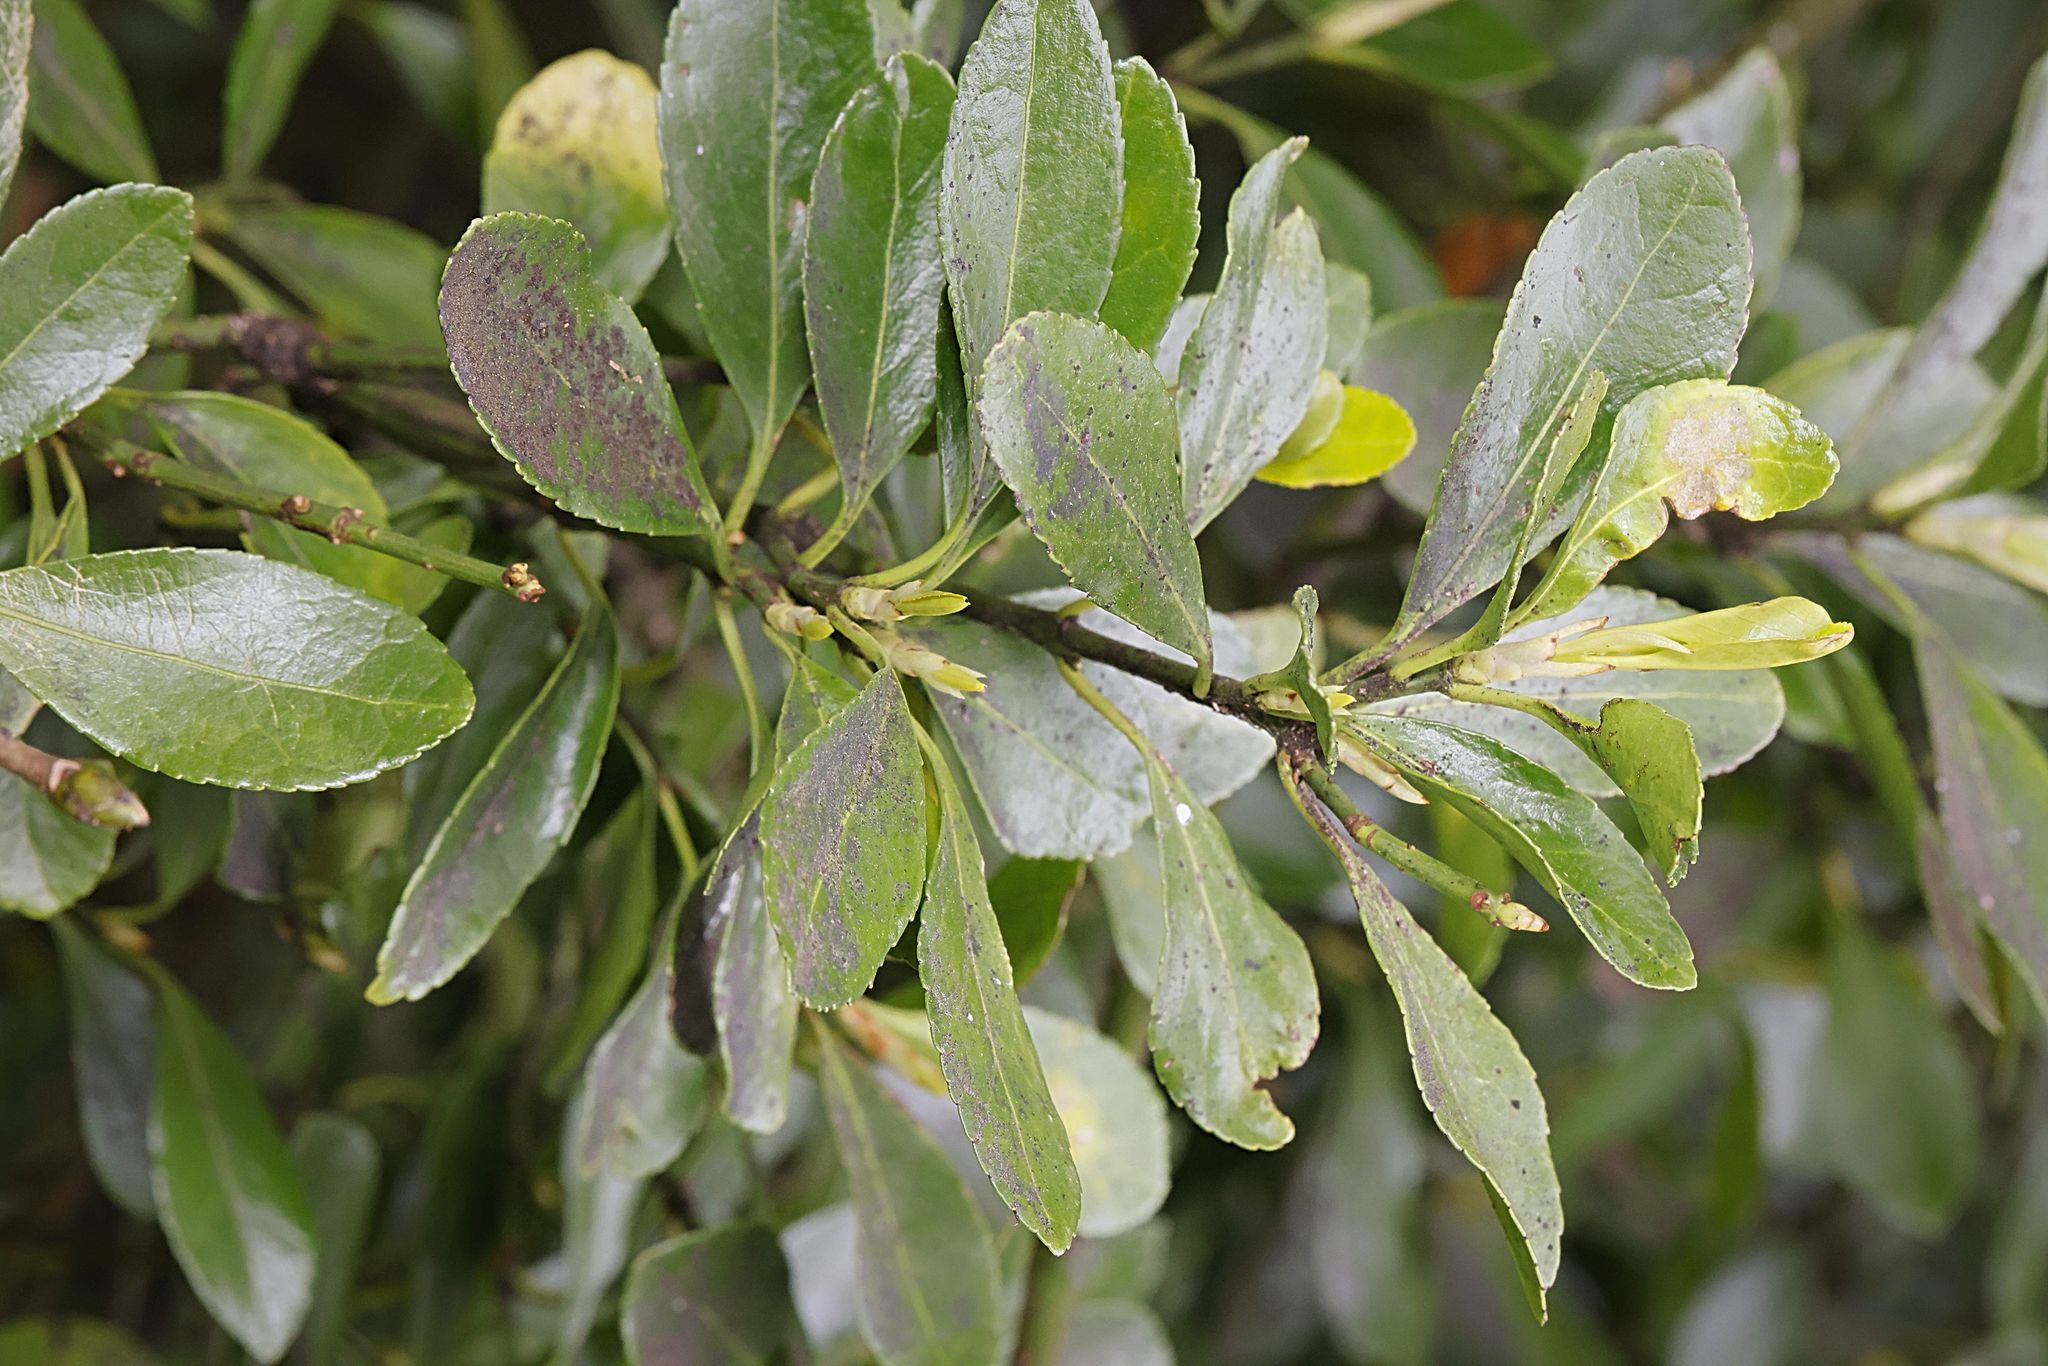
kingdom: Plantae
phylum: Tracheophyta
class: Magnoliopsida
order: Celastrales
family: Celastraceae
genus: Euonymus
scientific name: Euonymus japonicus
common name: Japanese spindletree
